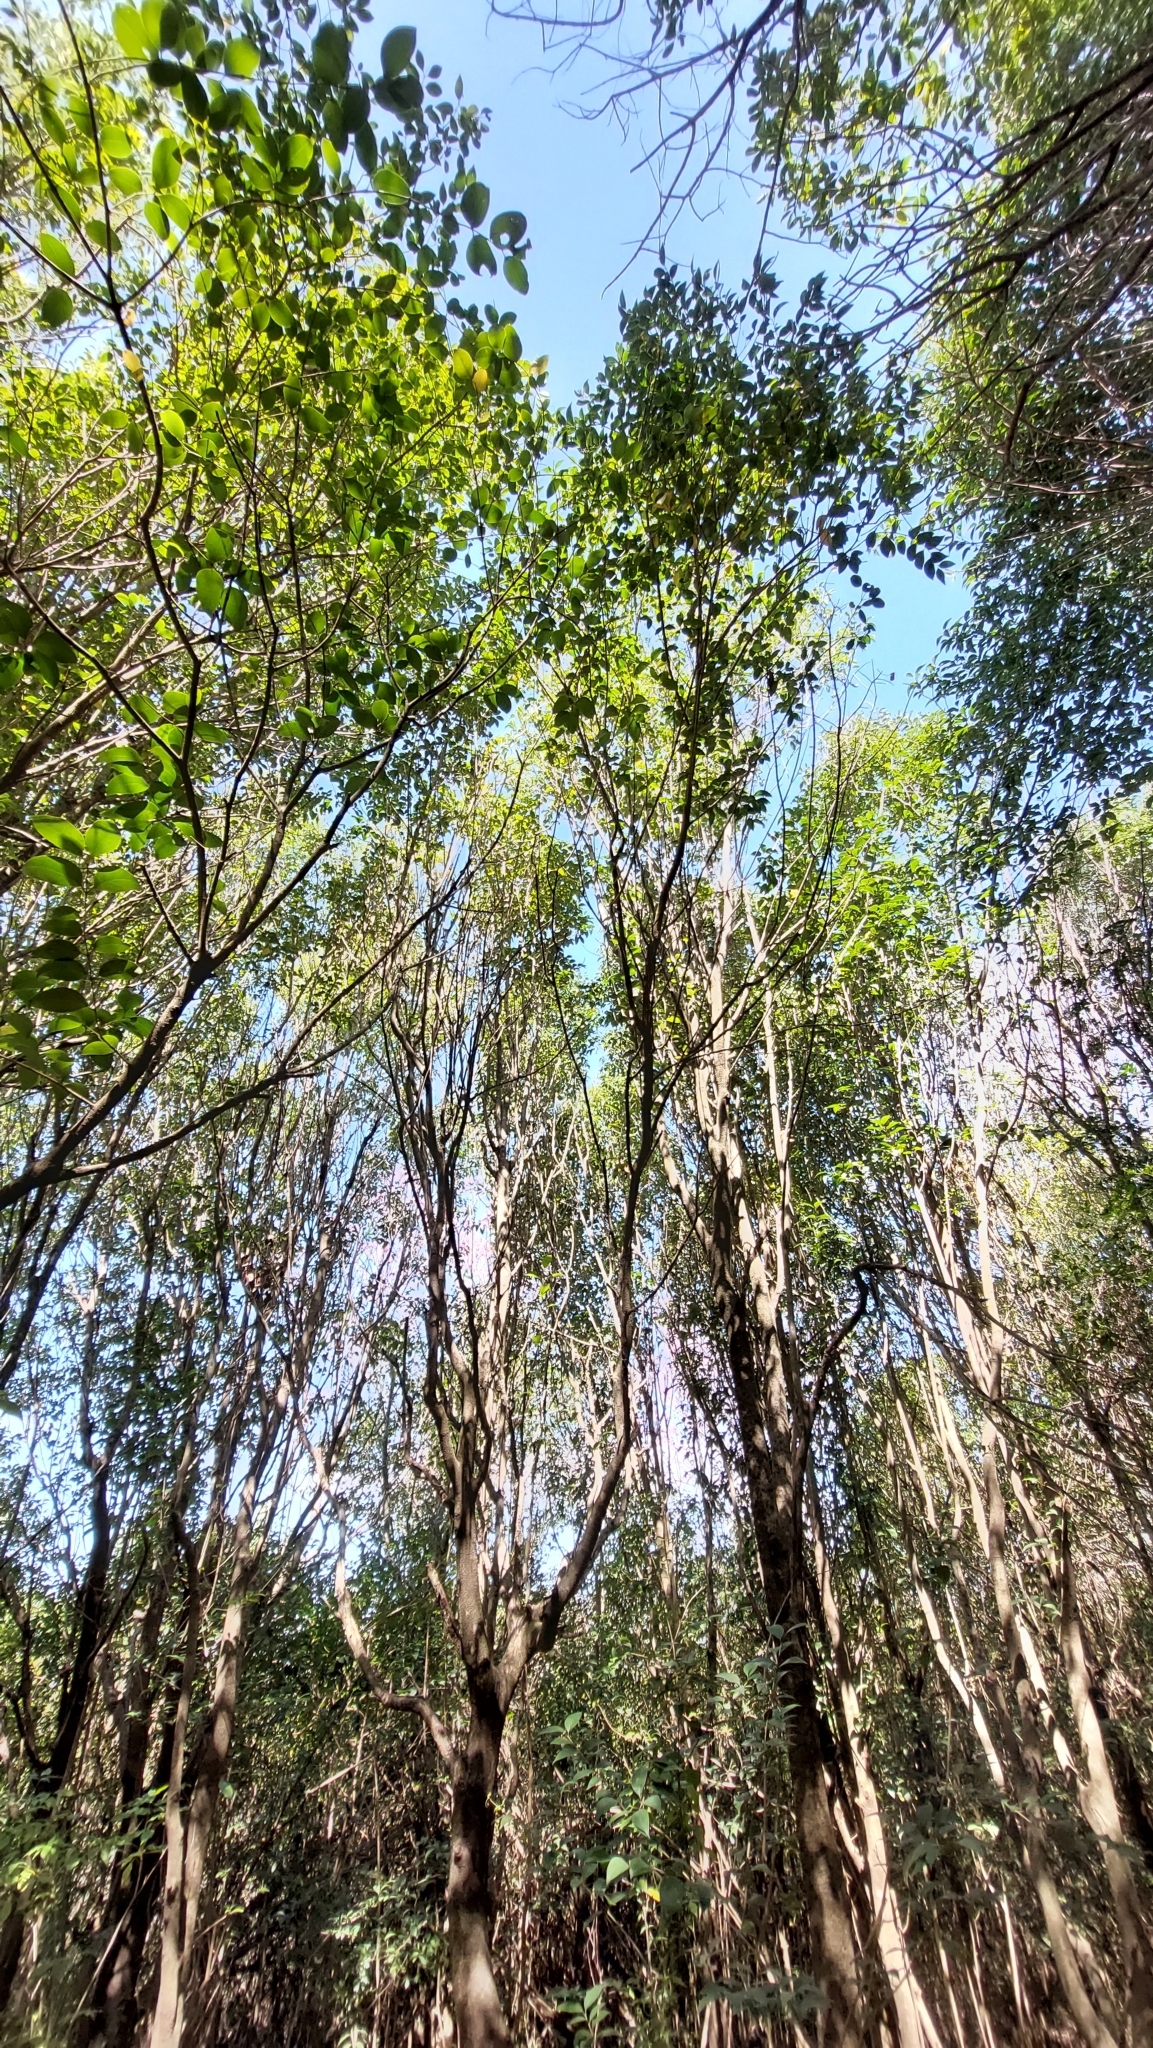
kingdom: Plantae
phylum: Tracheophyta
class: Magnoliopsida
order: Lamiales
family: Oleaceae
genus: Ligustrum
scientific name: Ligustrum lucidum
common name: Glossy privet
